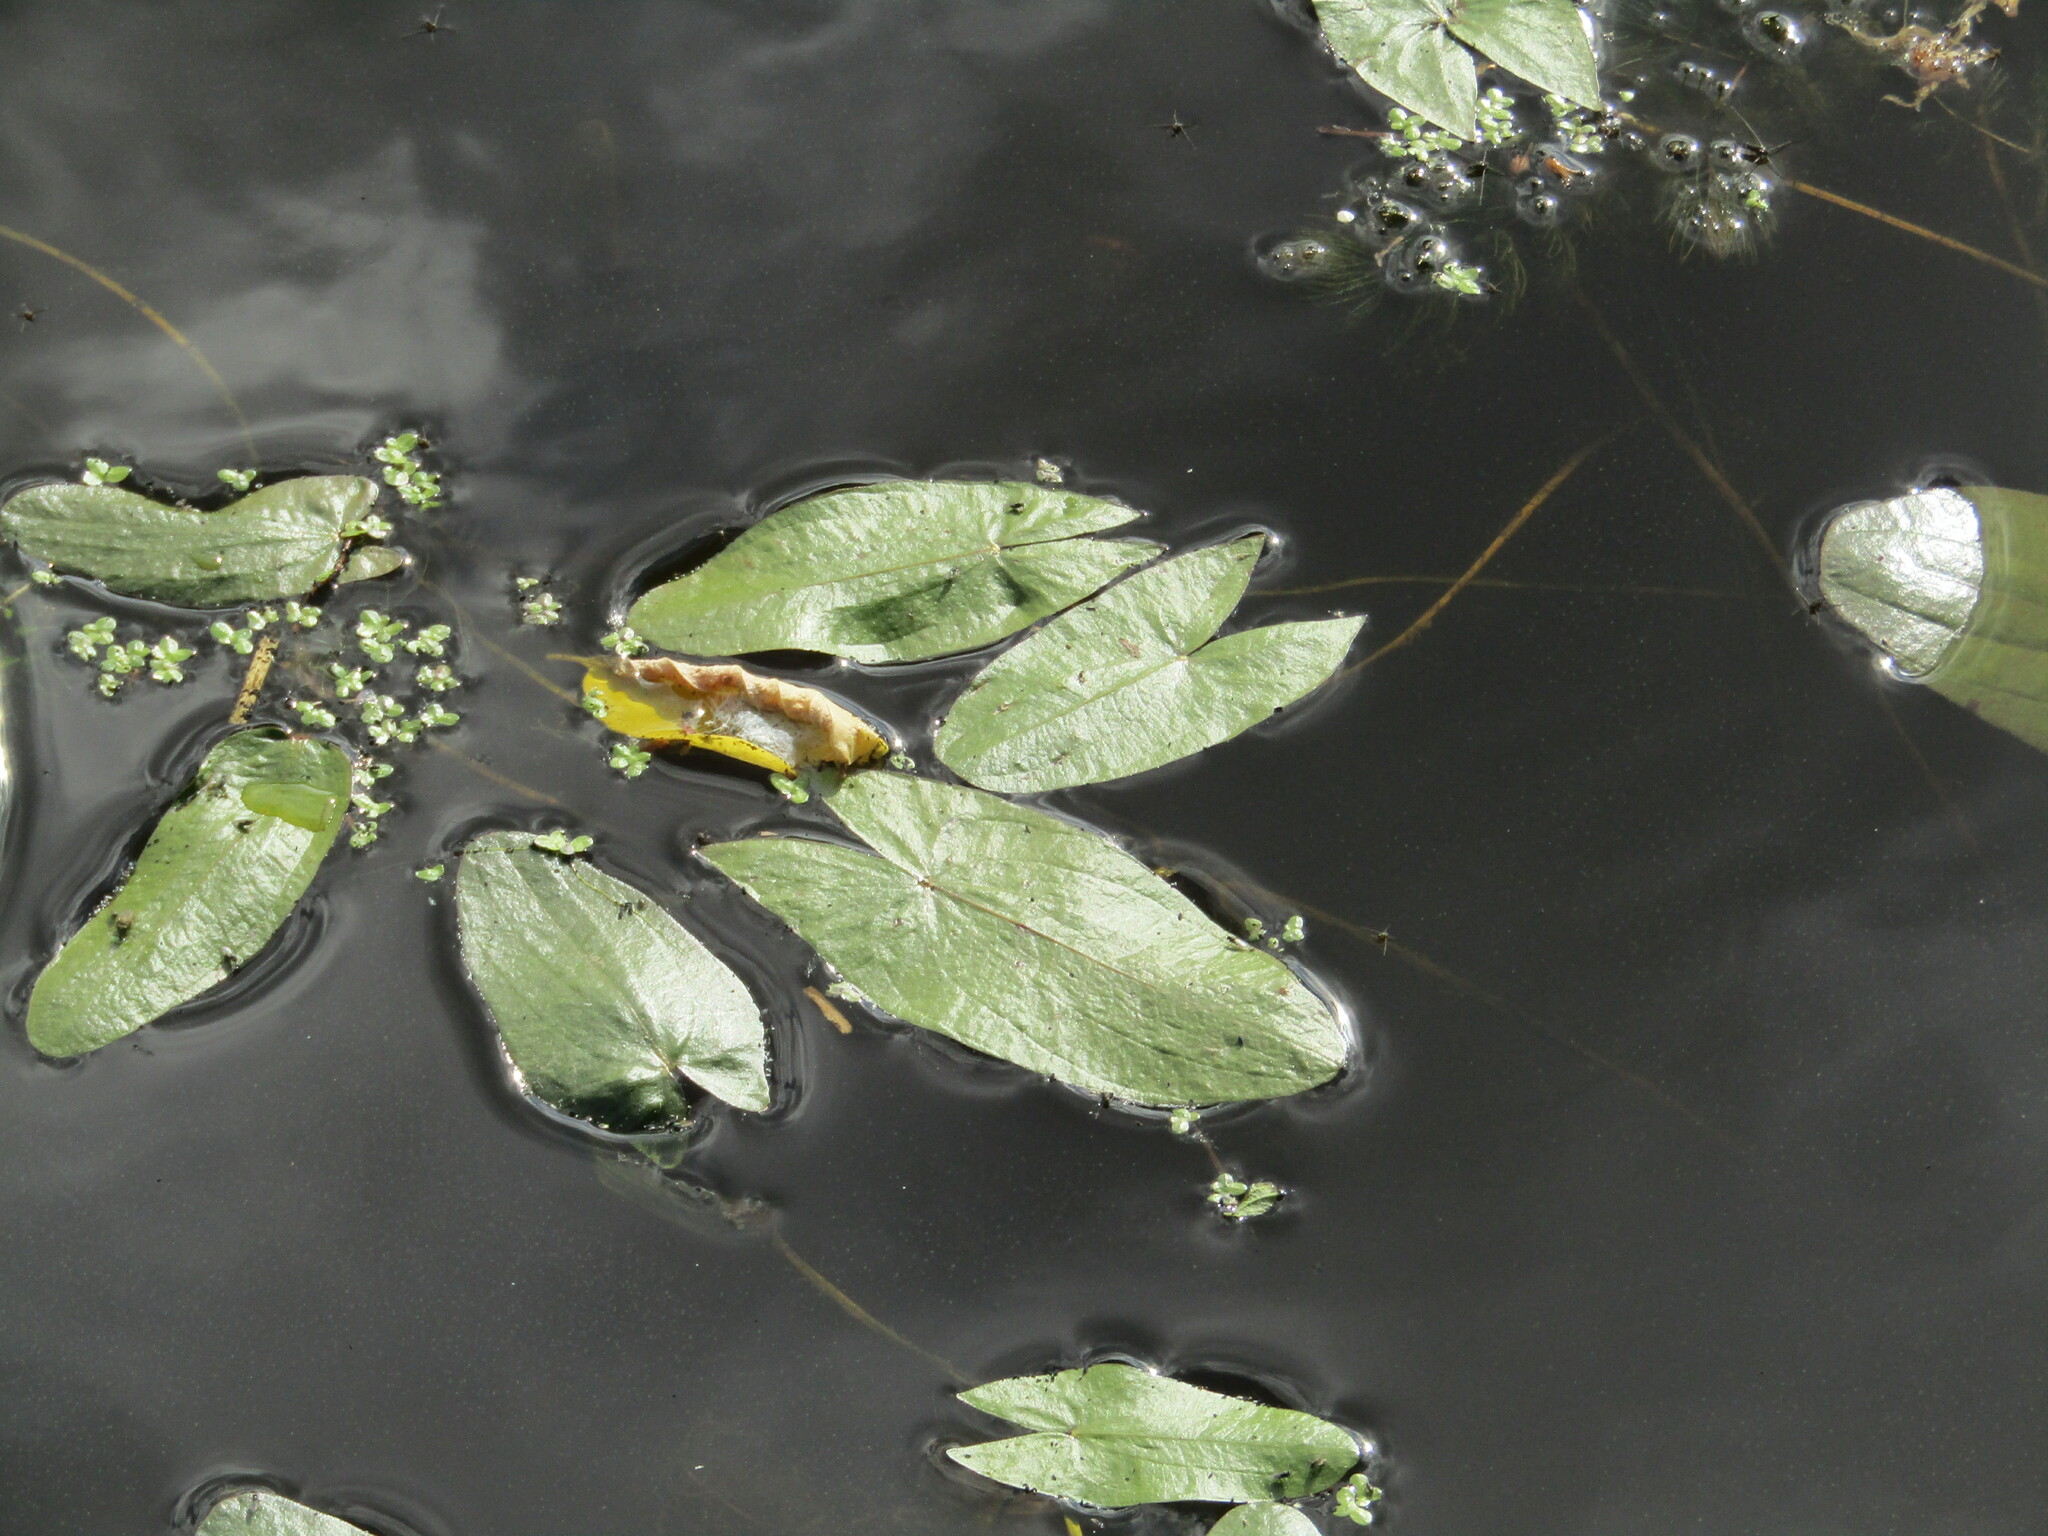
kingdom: Plantae
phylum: Tracheophyta
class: Liliopsida
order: Alismatales
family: Alismataceae
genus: Sagittaria
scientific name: Sagittaria sagittifolia
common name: Arrowhead
